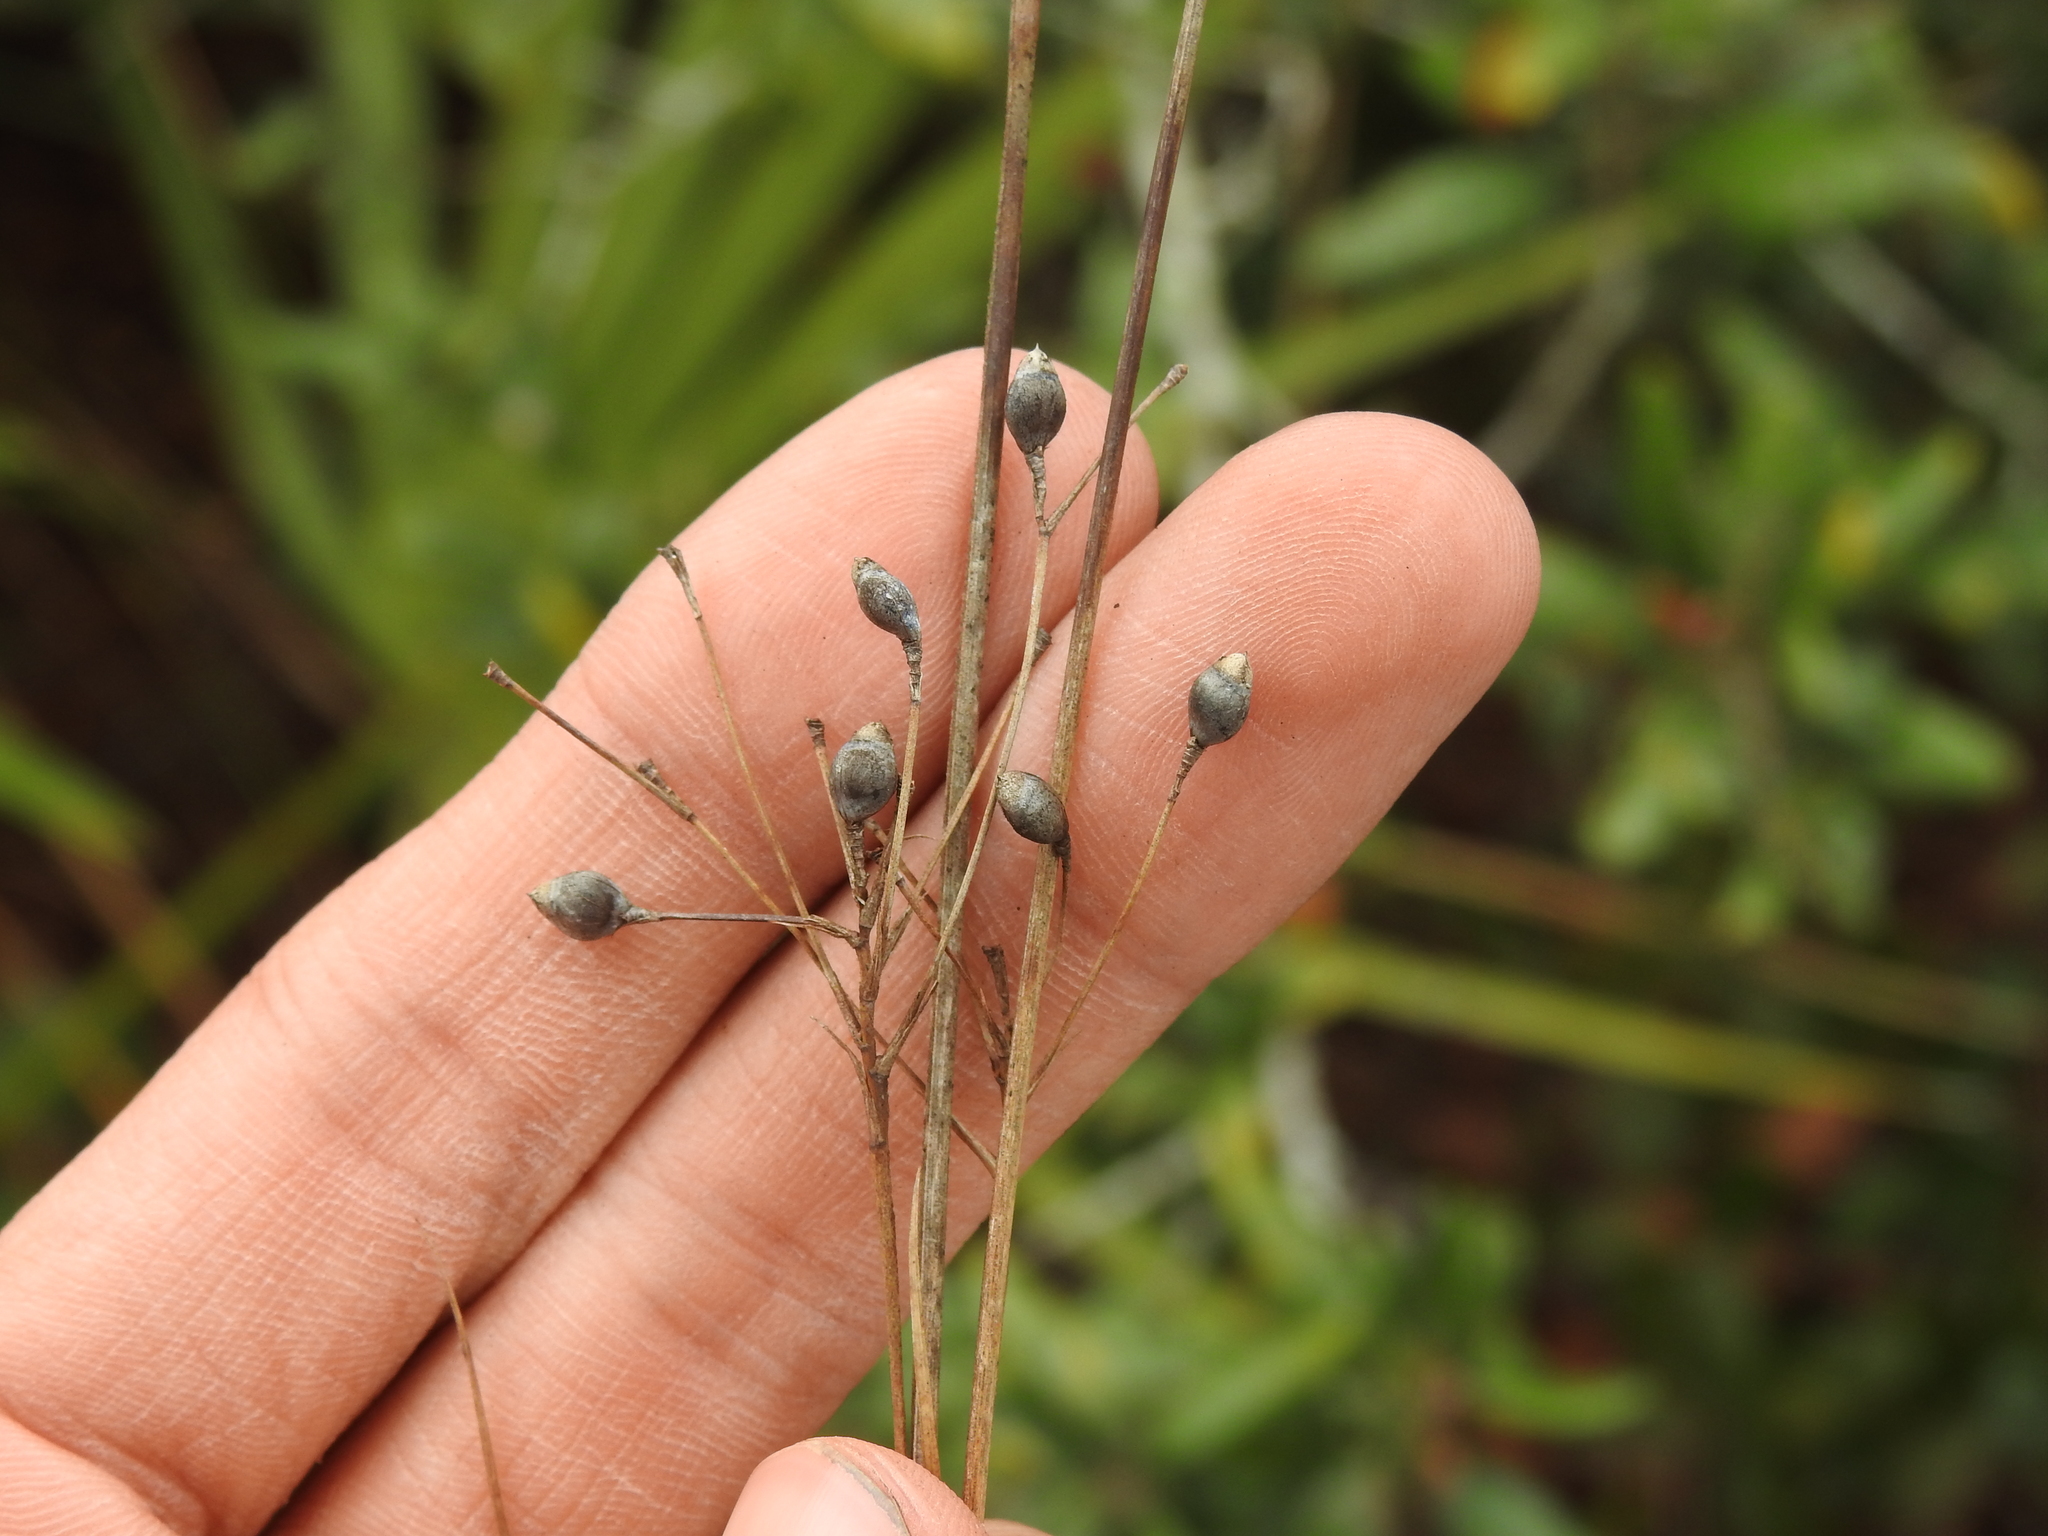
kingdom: Plantae
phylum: Tracheophyta
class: Liliopsida
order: Poales
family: Cyperaceae
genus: Rhynchospora
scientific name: Rhynchospora megalocarpa
